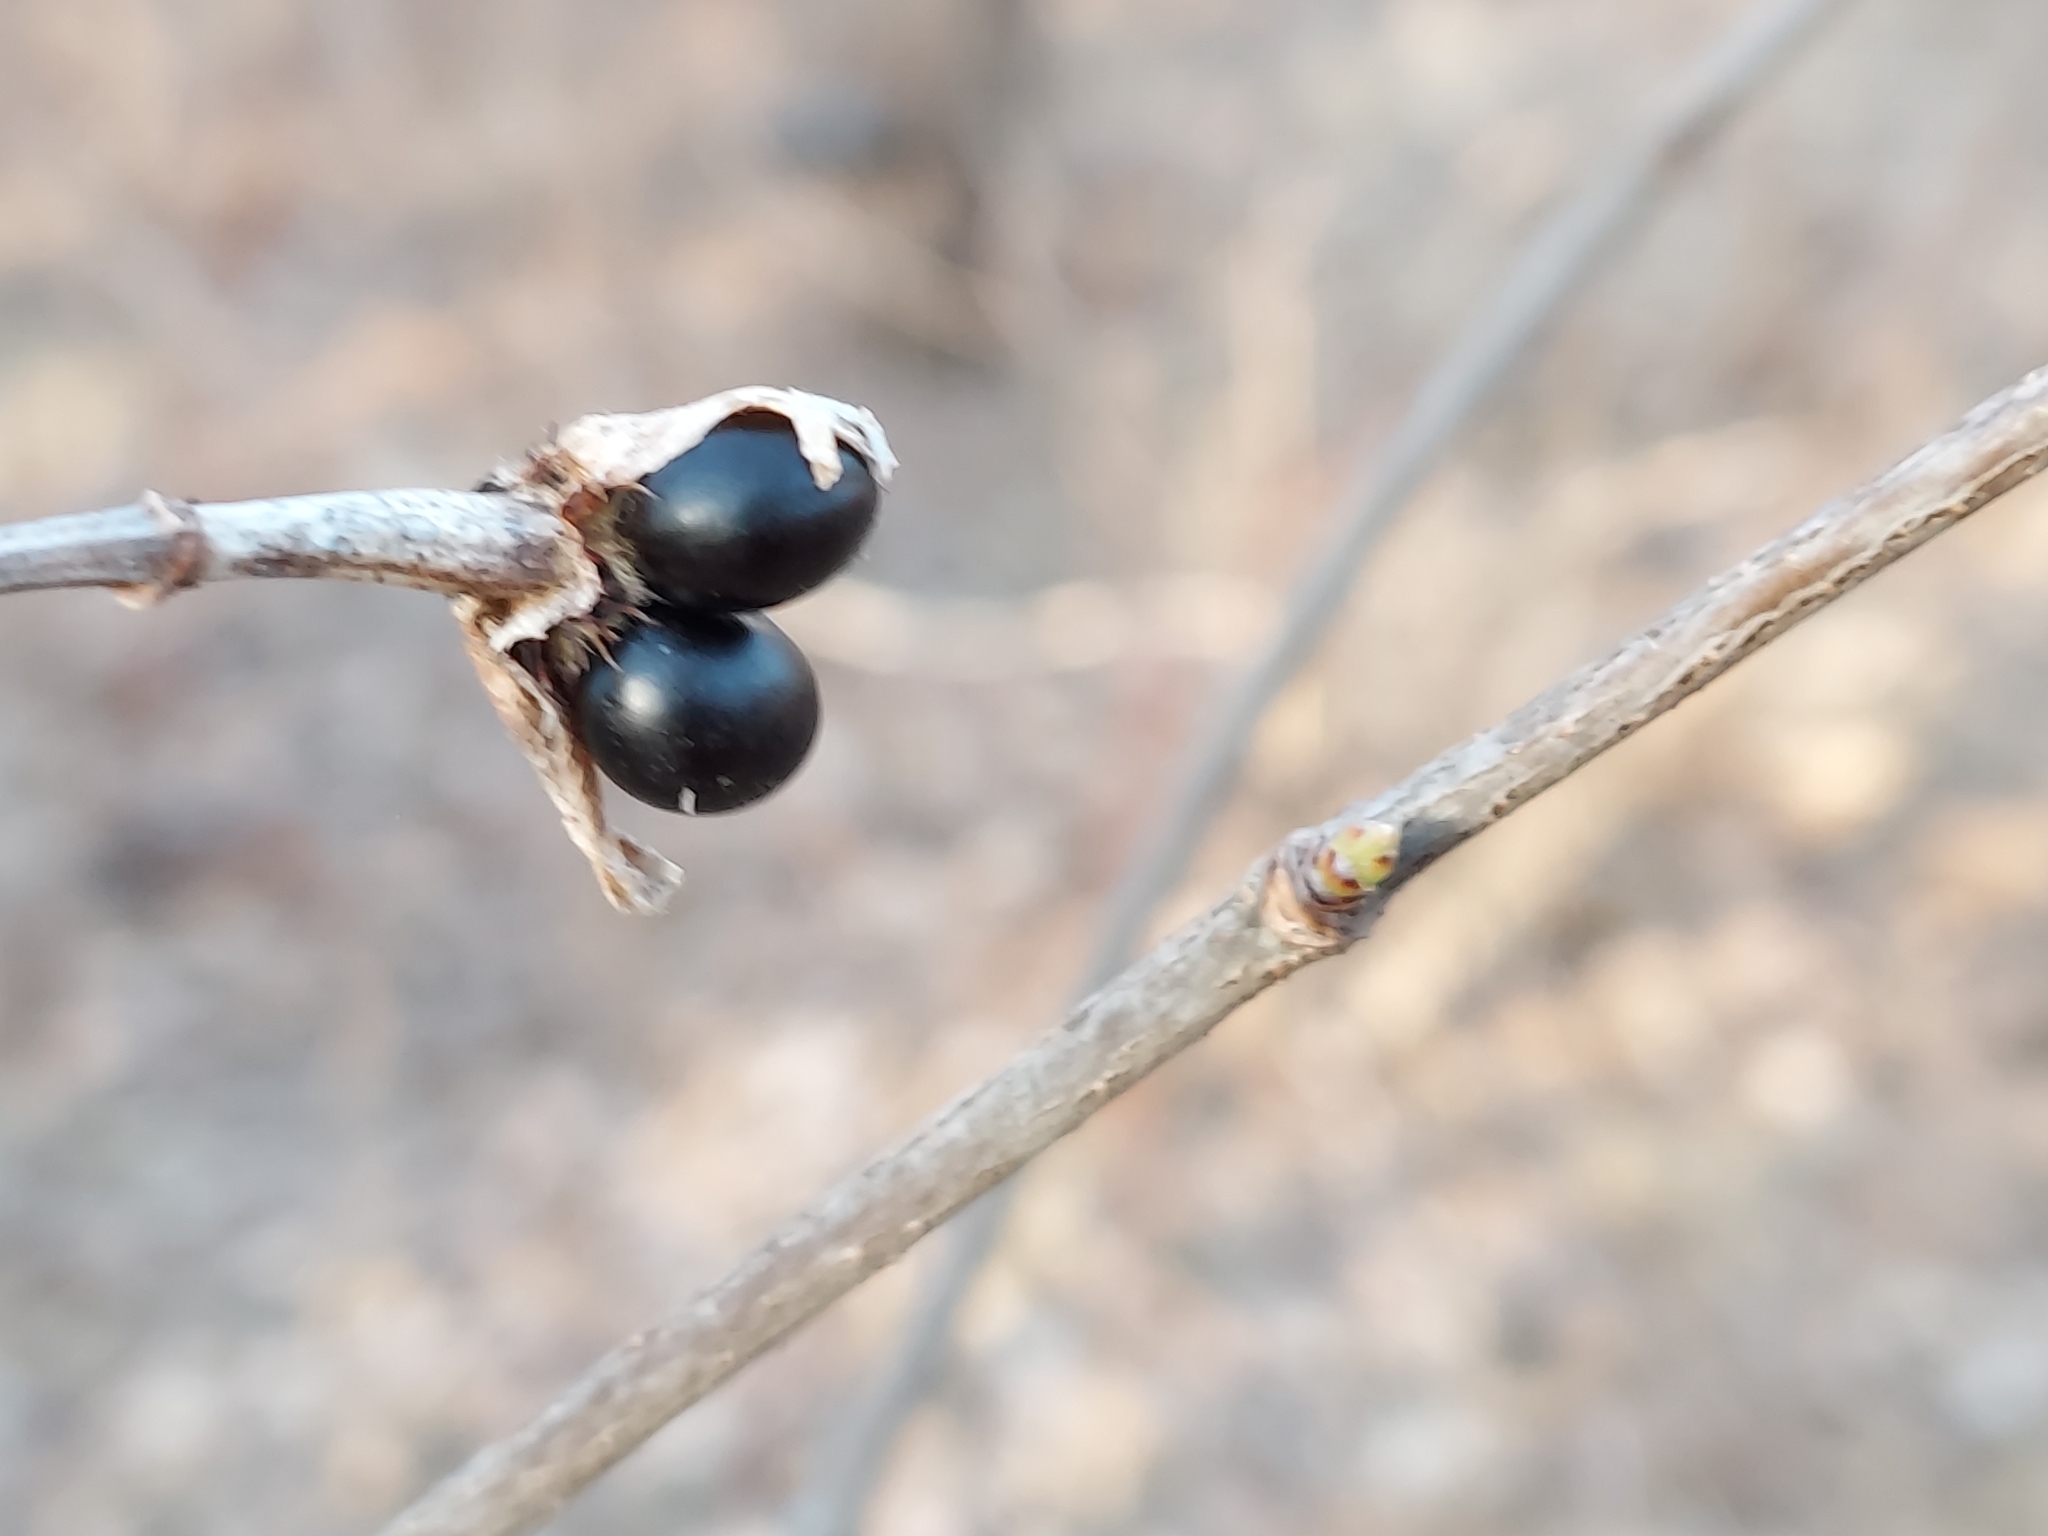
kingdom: Plantae
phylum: Tracheophyta
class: Magnoliopsida
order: Rosales
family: Rosaceae
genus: Rhodotypos
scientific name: Rhodotypos scandens
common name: Jetbead
